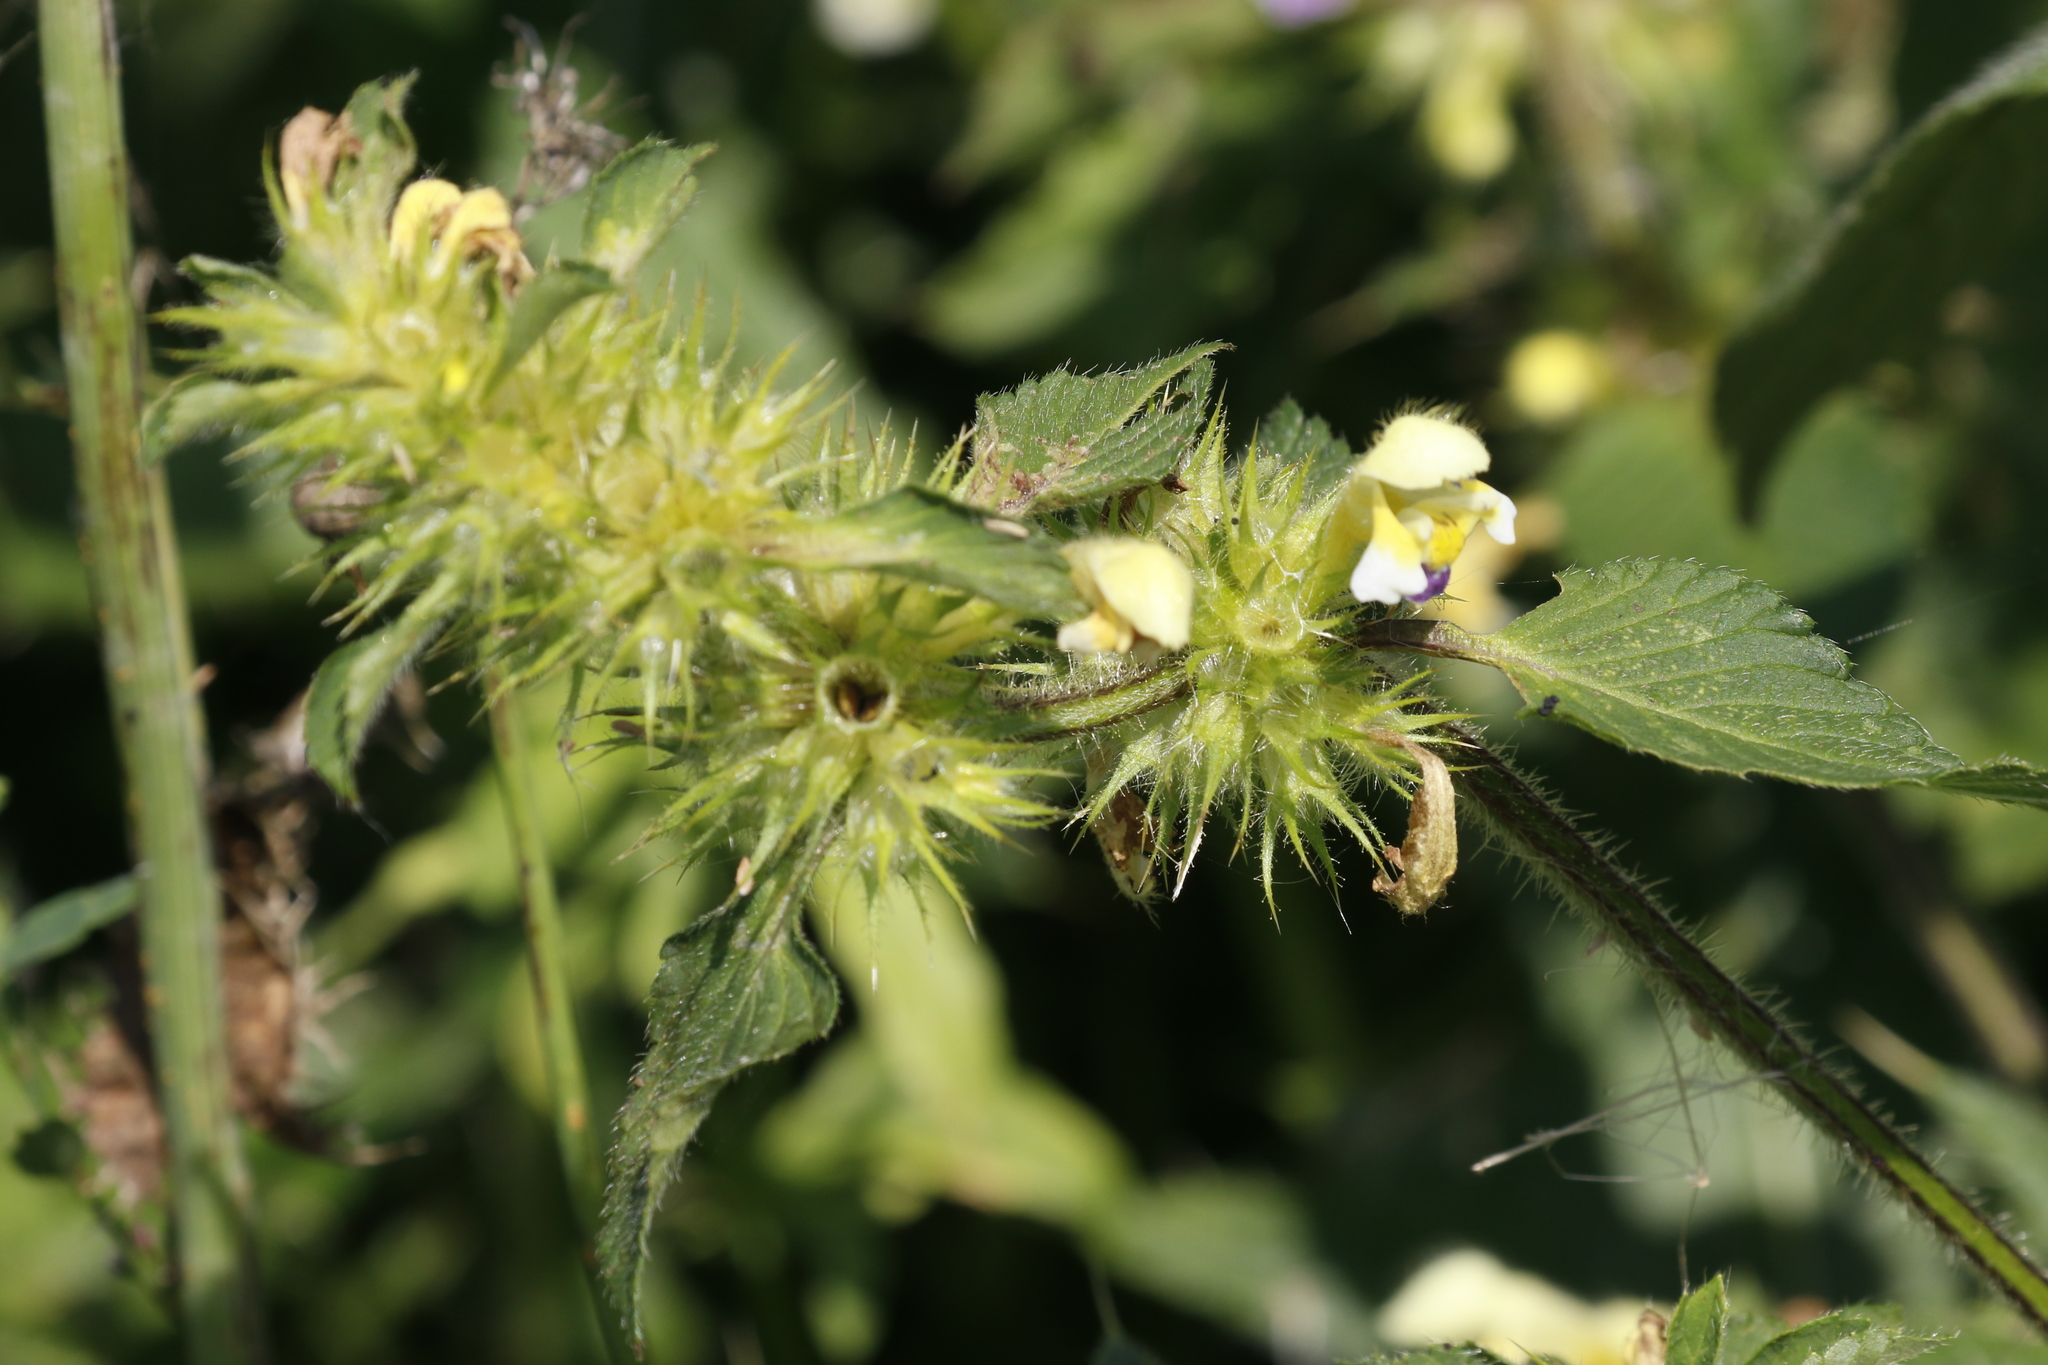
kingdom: Plantae
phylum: Tracheophyta
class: Magnoliopsida
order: Lamiales
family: Lamiaceae
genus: Galeopsis
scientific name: Galeopsis speciosa
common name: Large-flowered hemp-nettle
